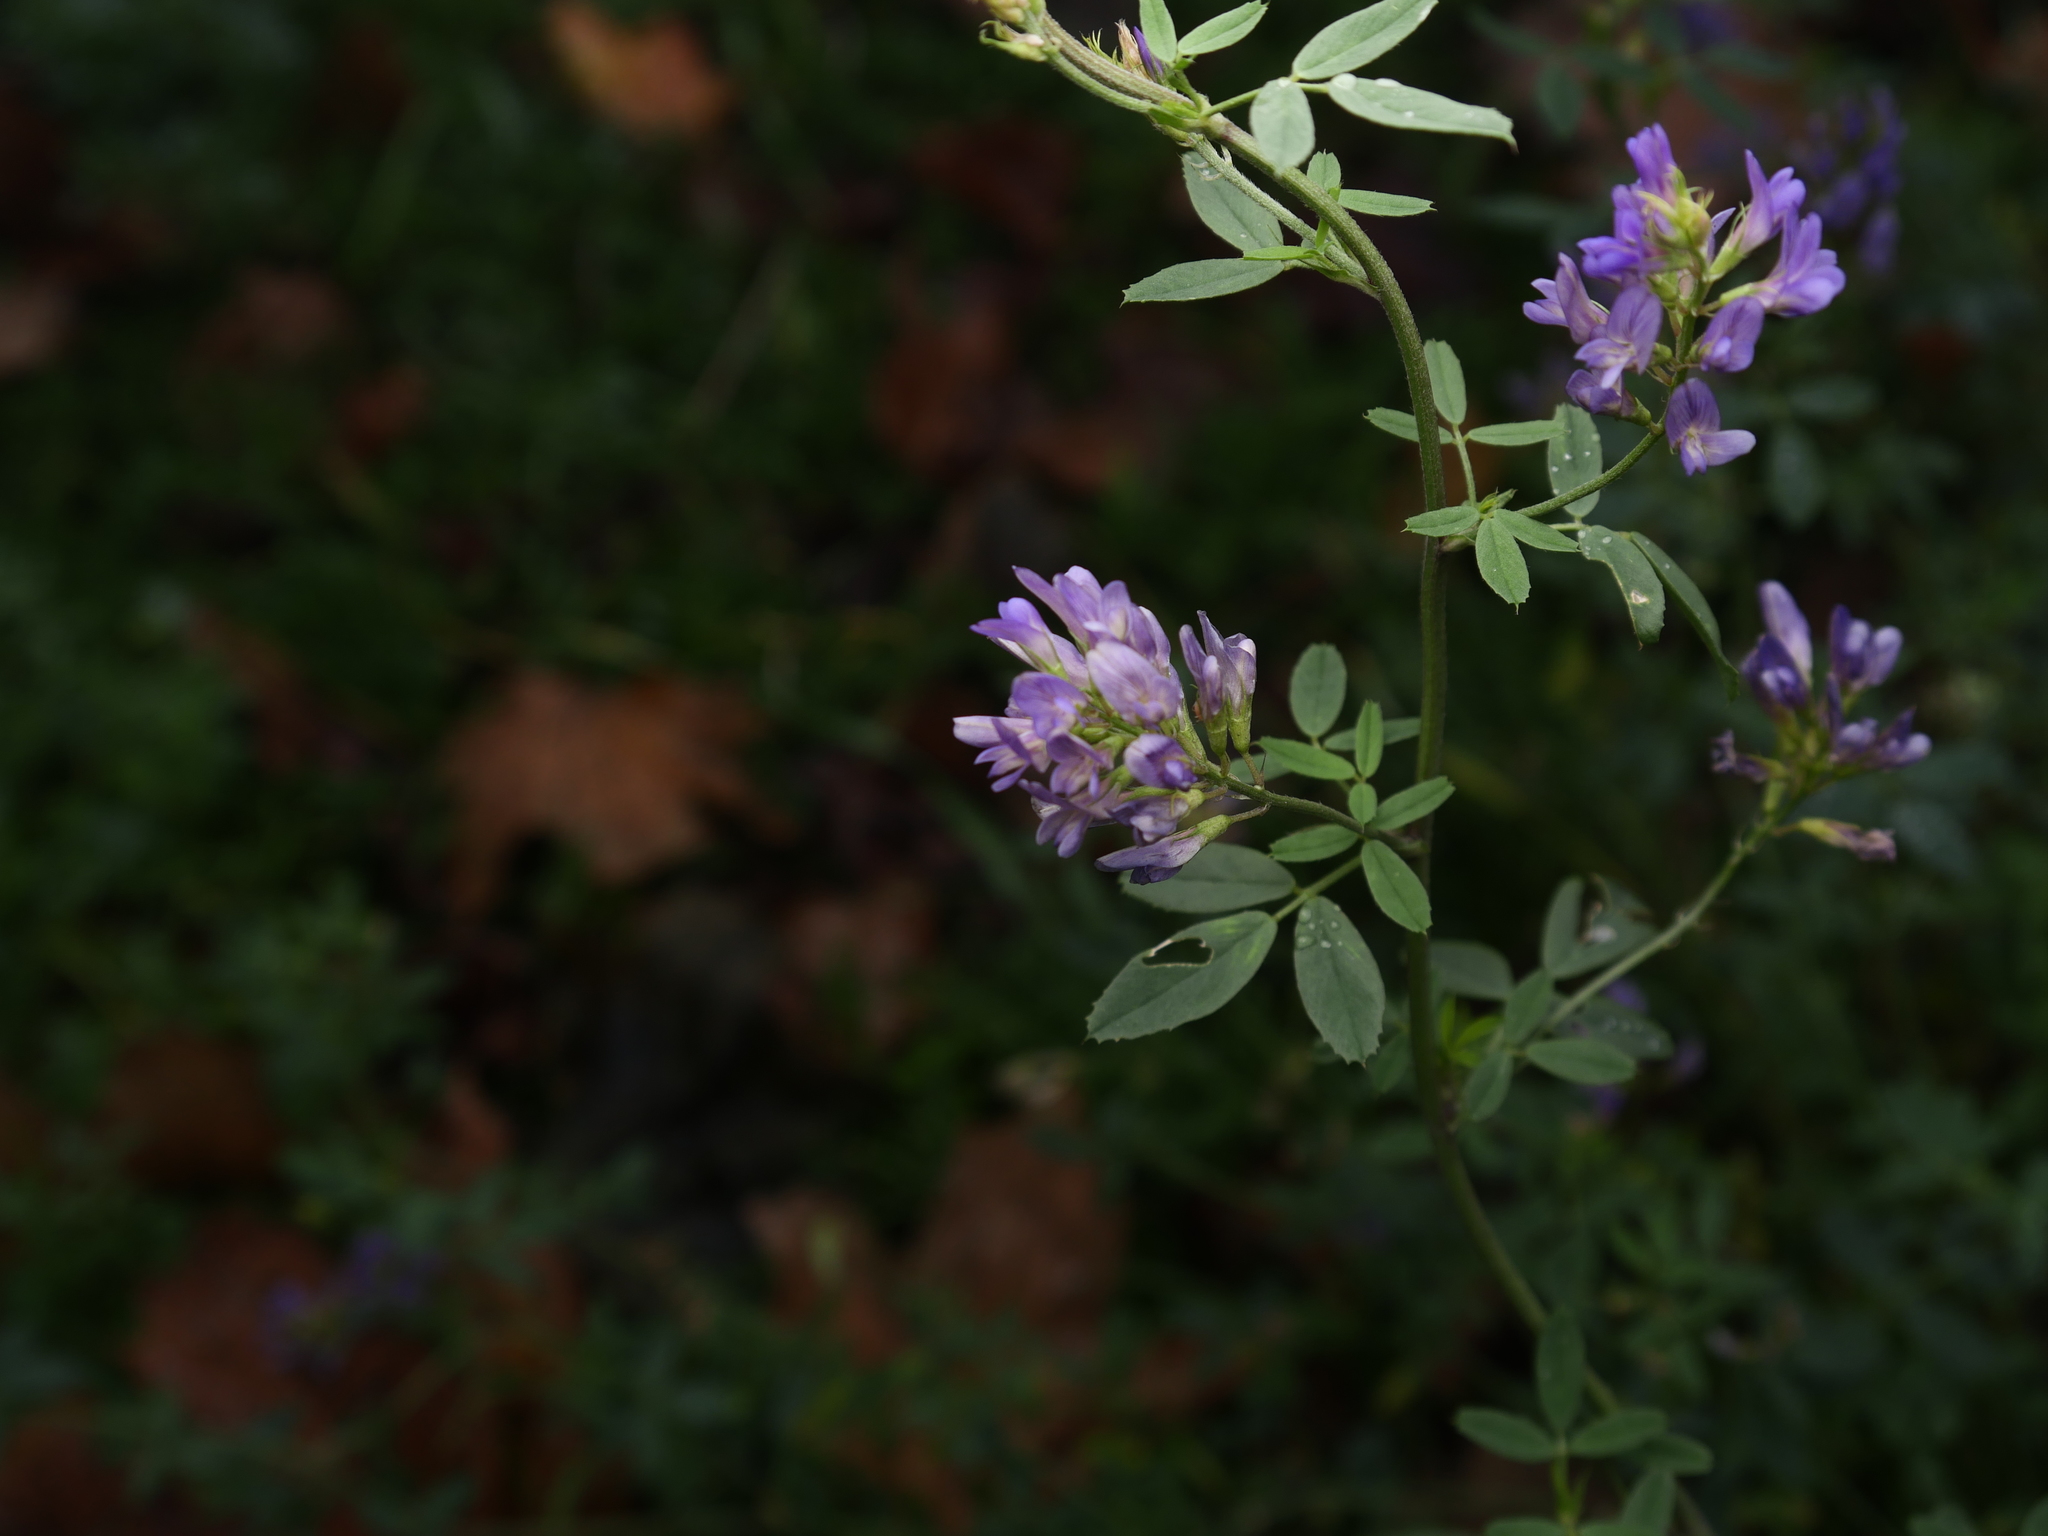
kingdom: Plantae
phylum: Tracheophyta
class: Magnoliopsida
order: Fabales
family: Fabaceae
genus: Medicago
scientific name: Medicago sativa
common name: Alfalfa
